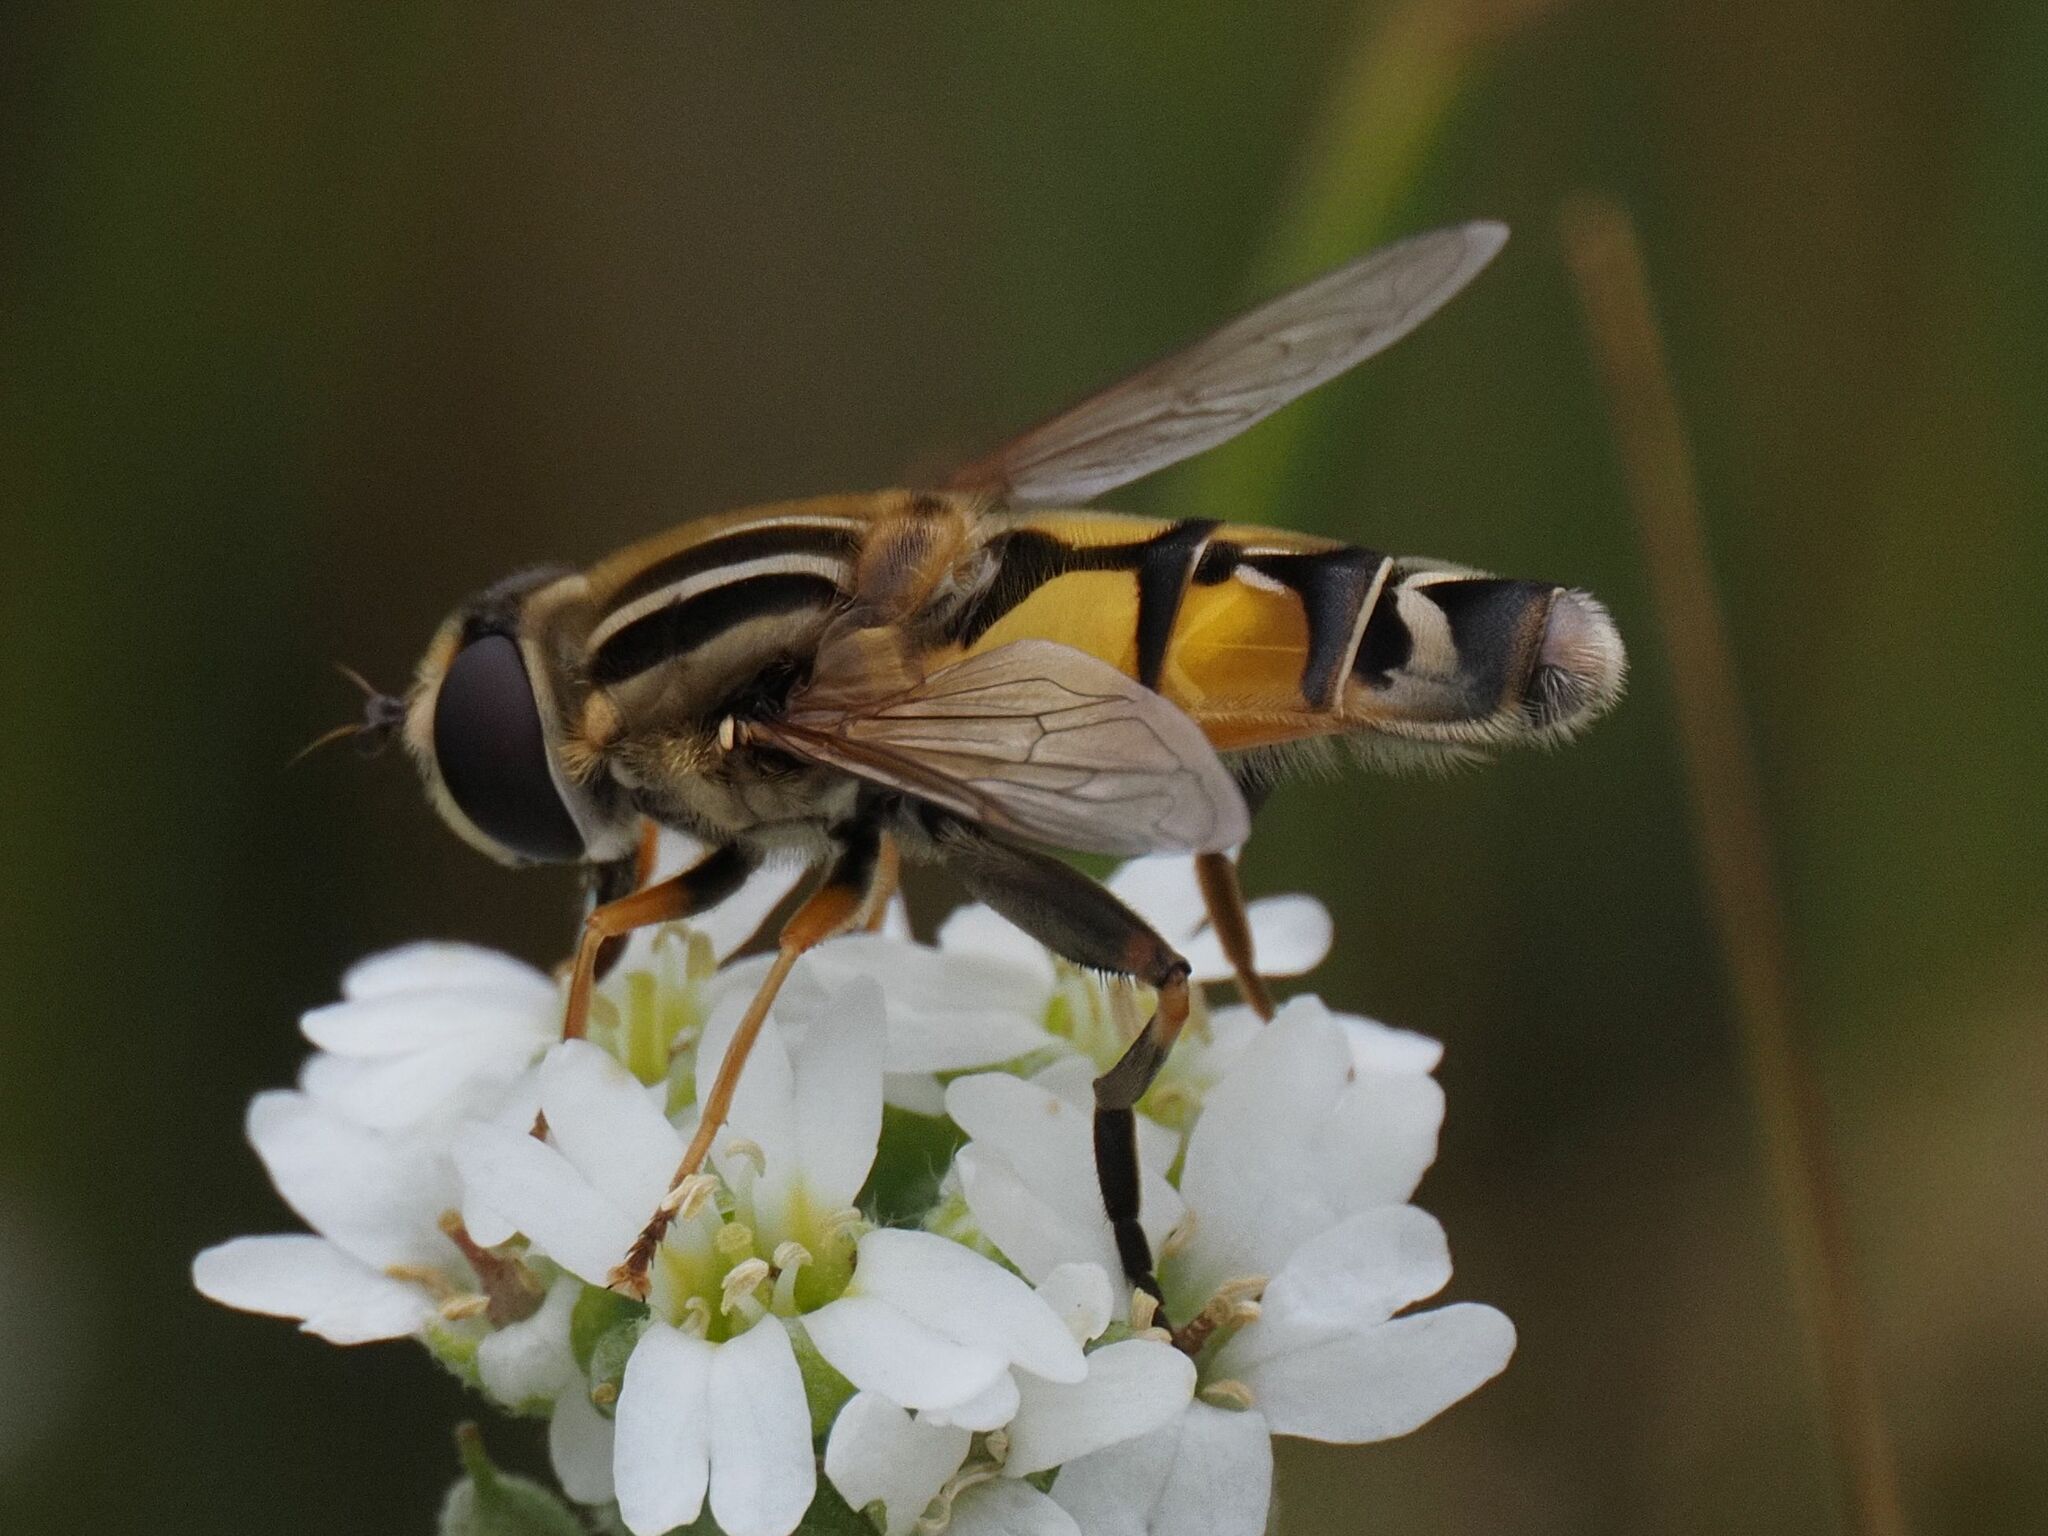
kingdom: Animalia
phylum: Arthropoda
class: Insecta
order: Diptera
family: Syrphidae
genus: Helophilus
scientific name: Helophilus trivittatus
